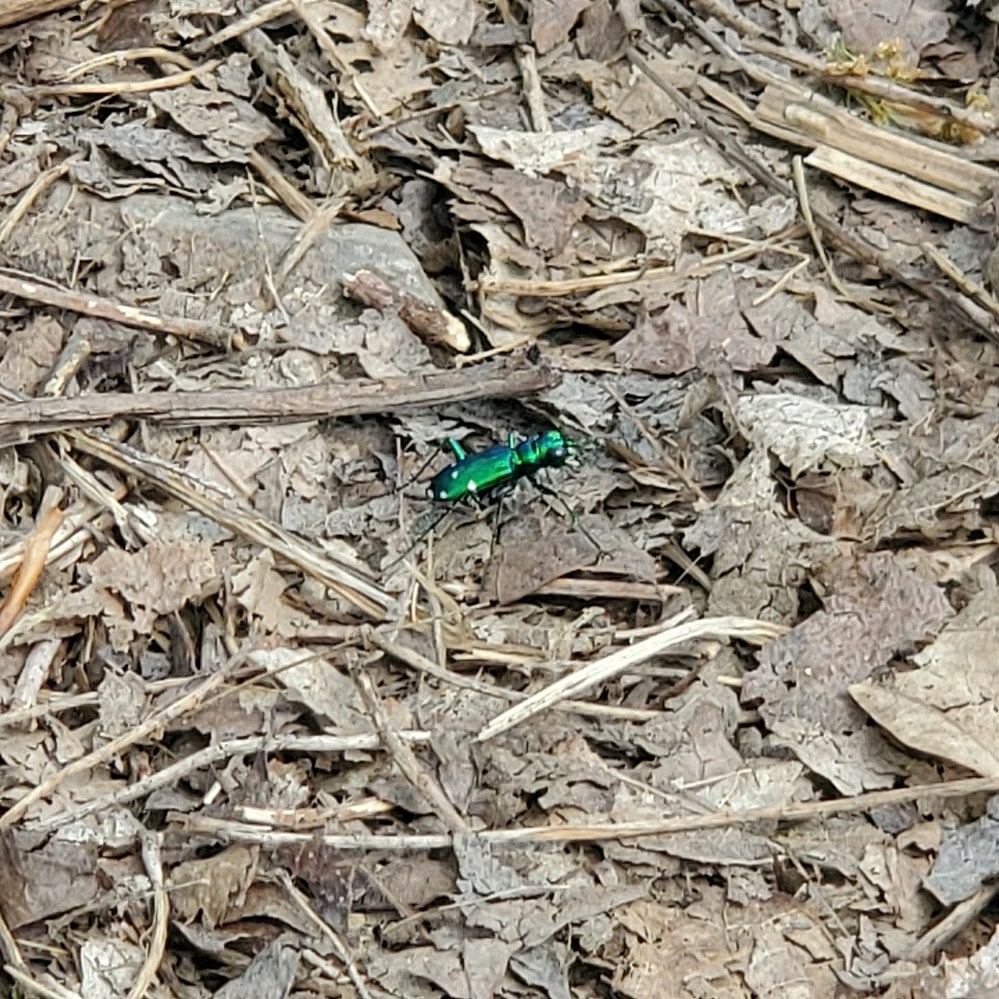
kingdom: Animalia
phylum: Arthropoda
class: Insecta
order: Coleoptera
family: Carabidae
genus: Cicindela
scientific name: Cicindela sexguttata
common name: Six-spotted tiger beetle
